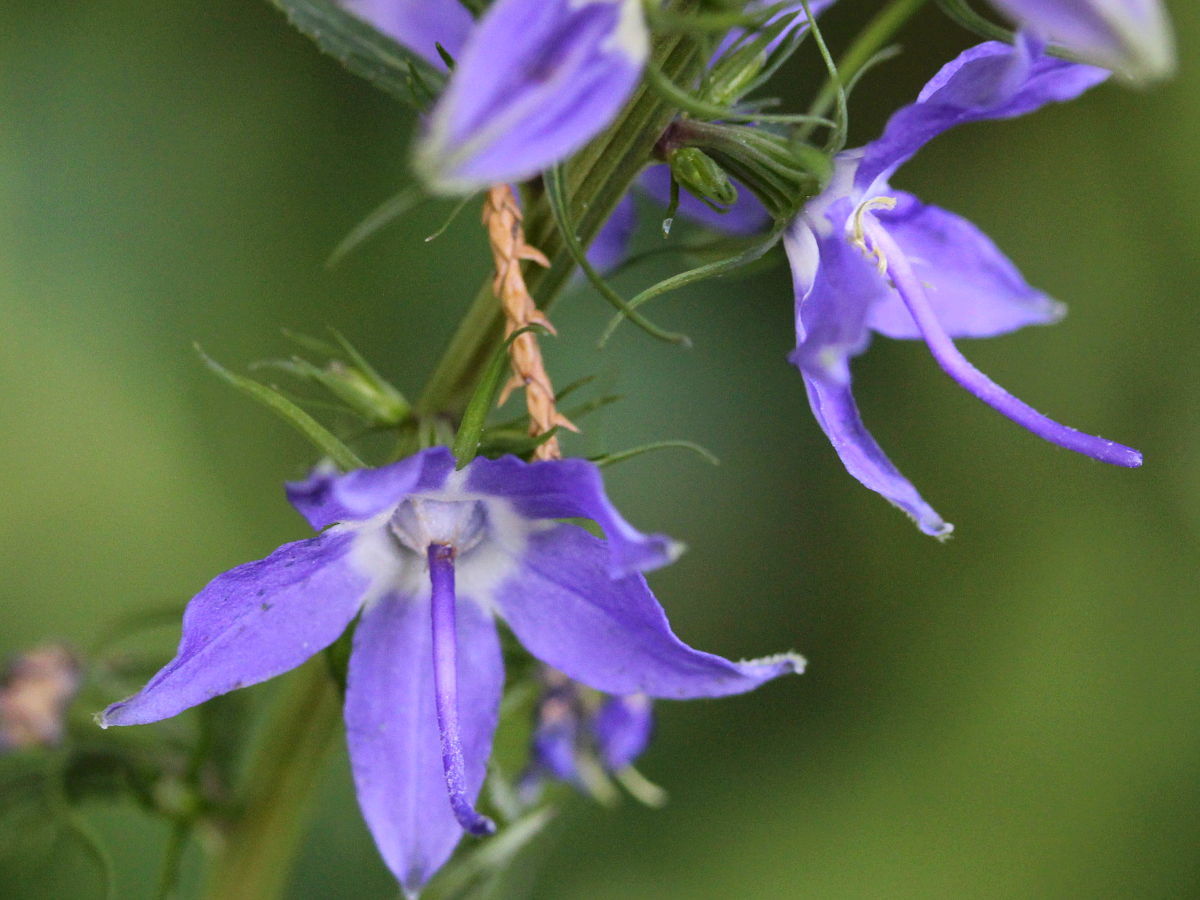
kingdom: Plantae
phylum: Tracheophyta
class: Magnoliopsida
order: Asterales
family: Campanulaceae
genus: Campanulastrum
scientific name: Campanulastrum americanum
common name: American bellflower
